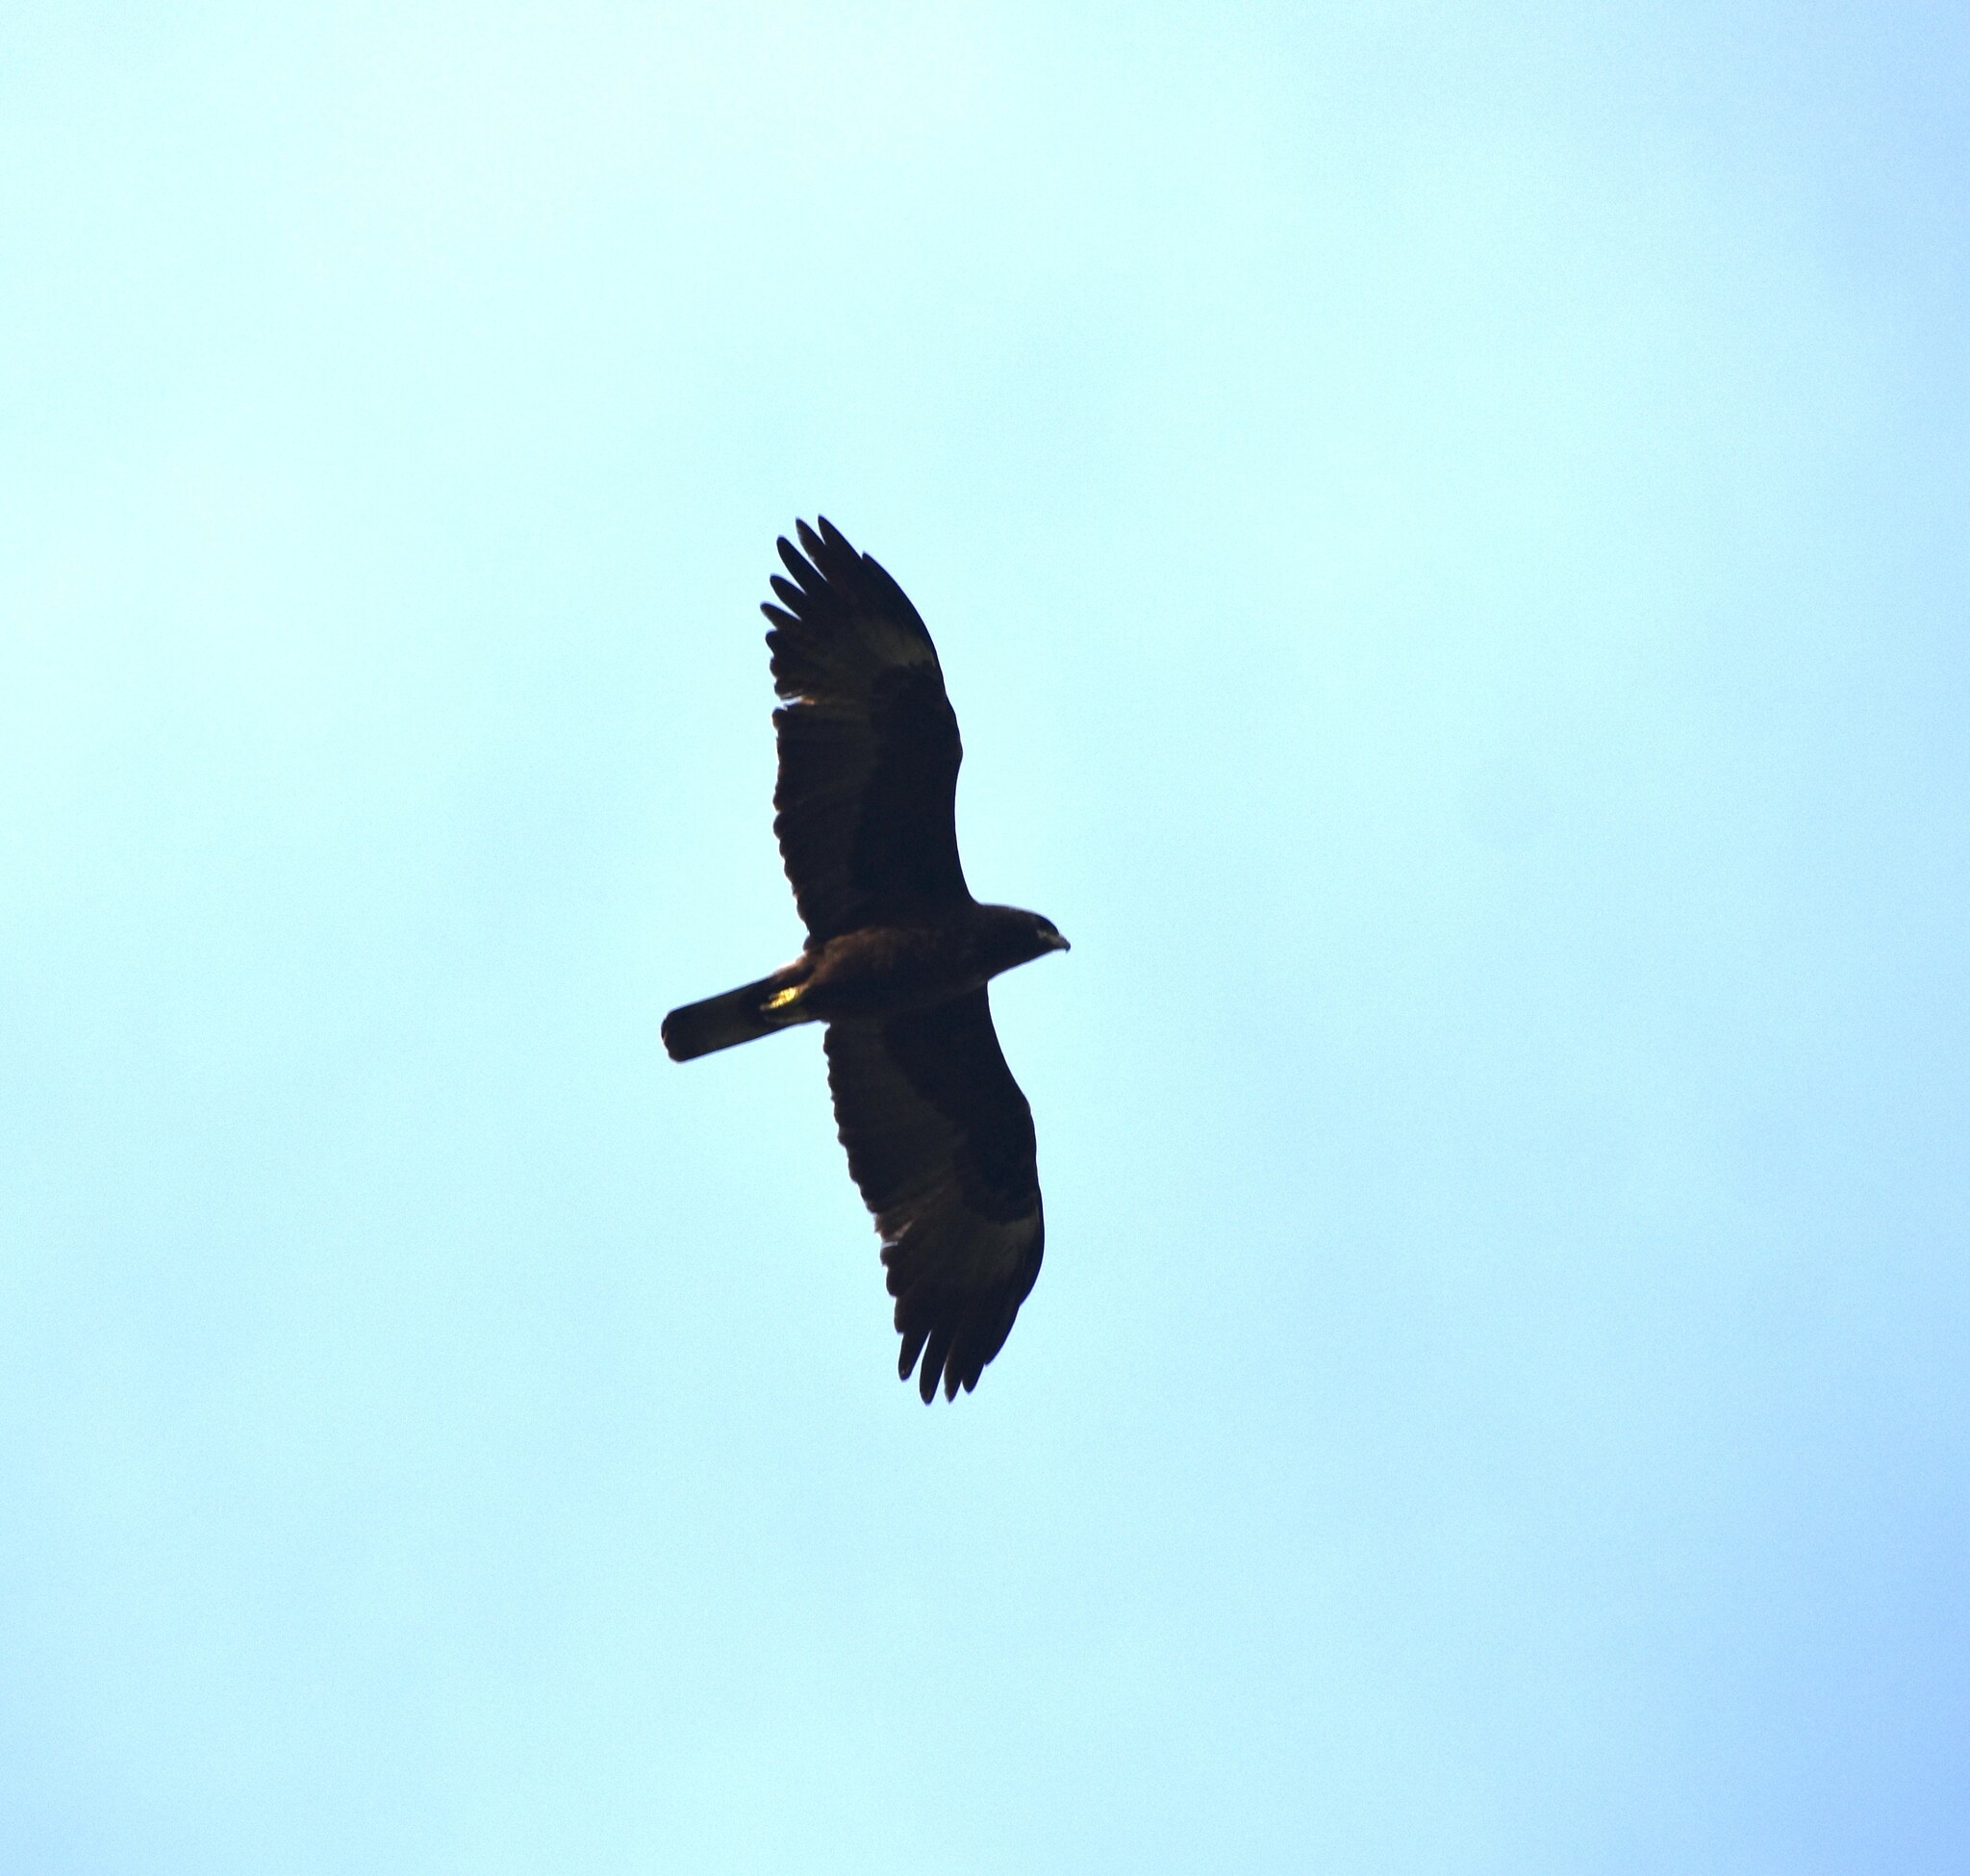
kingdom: Animalia
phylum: Chordata
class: Aves
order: Accipitriformes
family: Accipitridae
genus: Hieraaetus
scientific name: Hieraaetus wahlbergi
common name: Wahlberg's eagle
